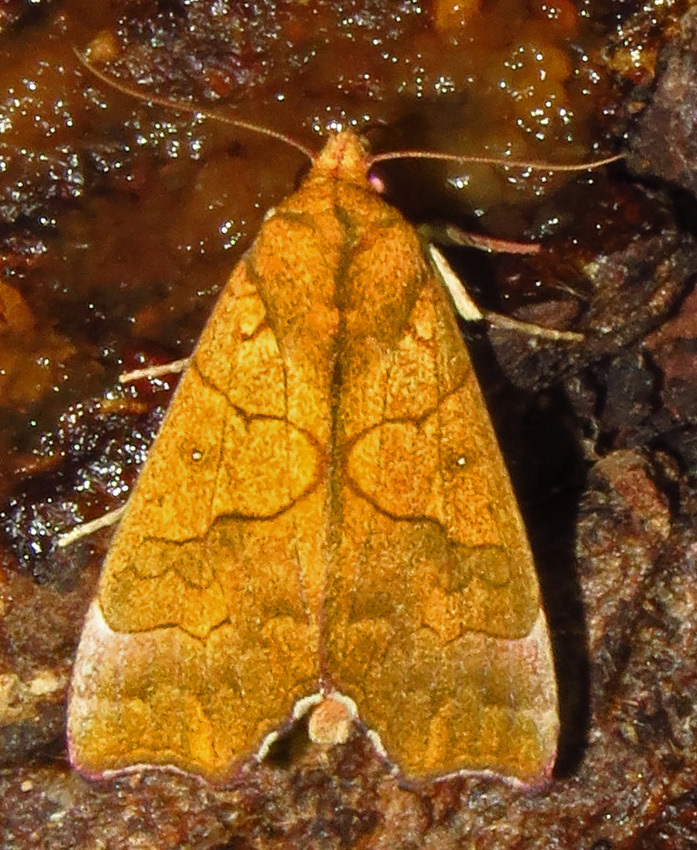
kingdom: Animalia
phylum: Arthropoda
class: Insecta
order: Lepidoptera
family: Erebidae
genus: Anomis
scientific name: Anomis erosa
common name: Yellow scallop moth
